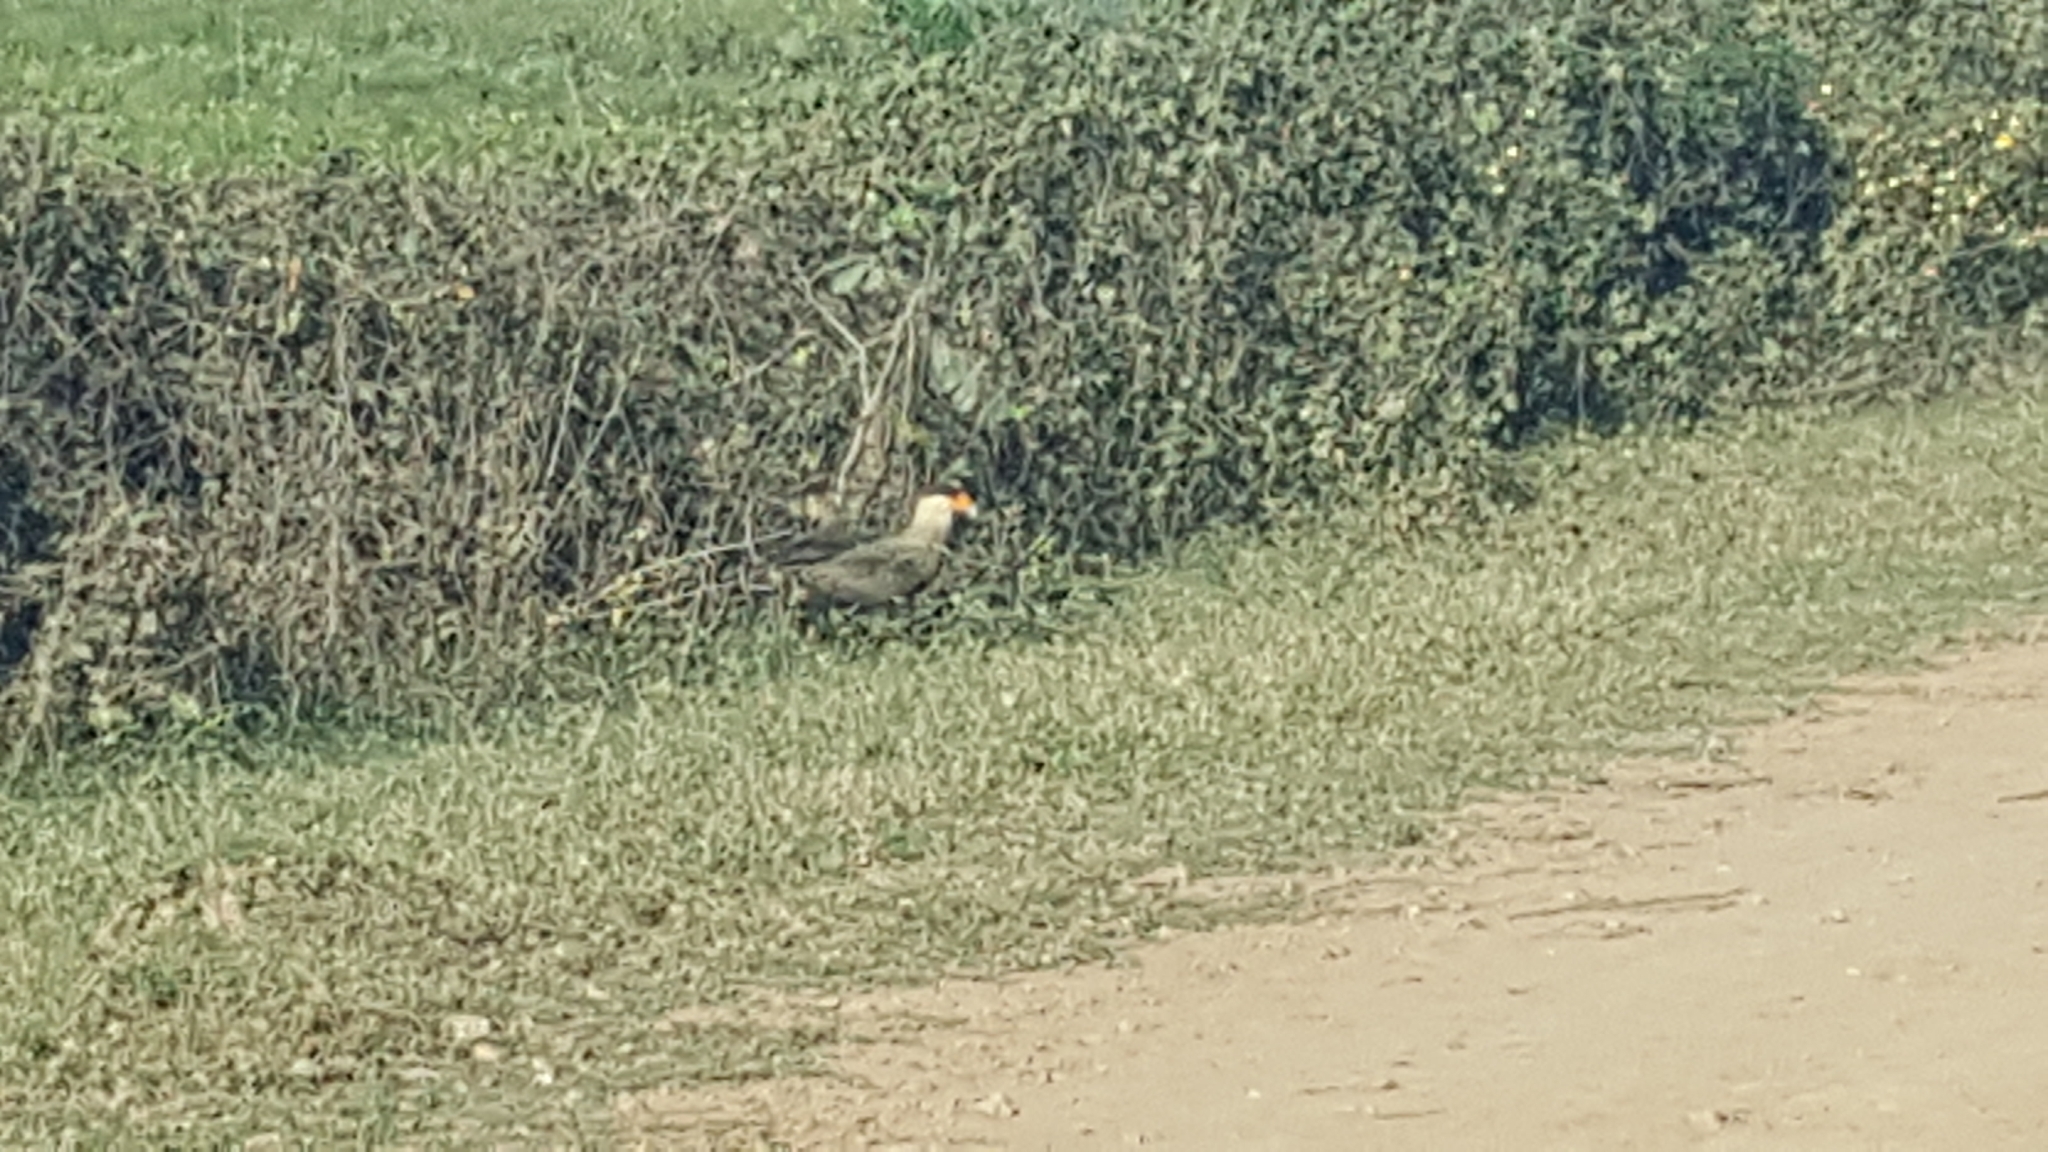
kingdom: Animalia
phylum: Chordata
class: Aves
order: Falconiformes
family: Falconidae
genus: Caracara
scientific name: Caracara plancus
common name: Southern caracara
